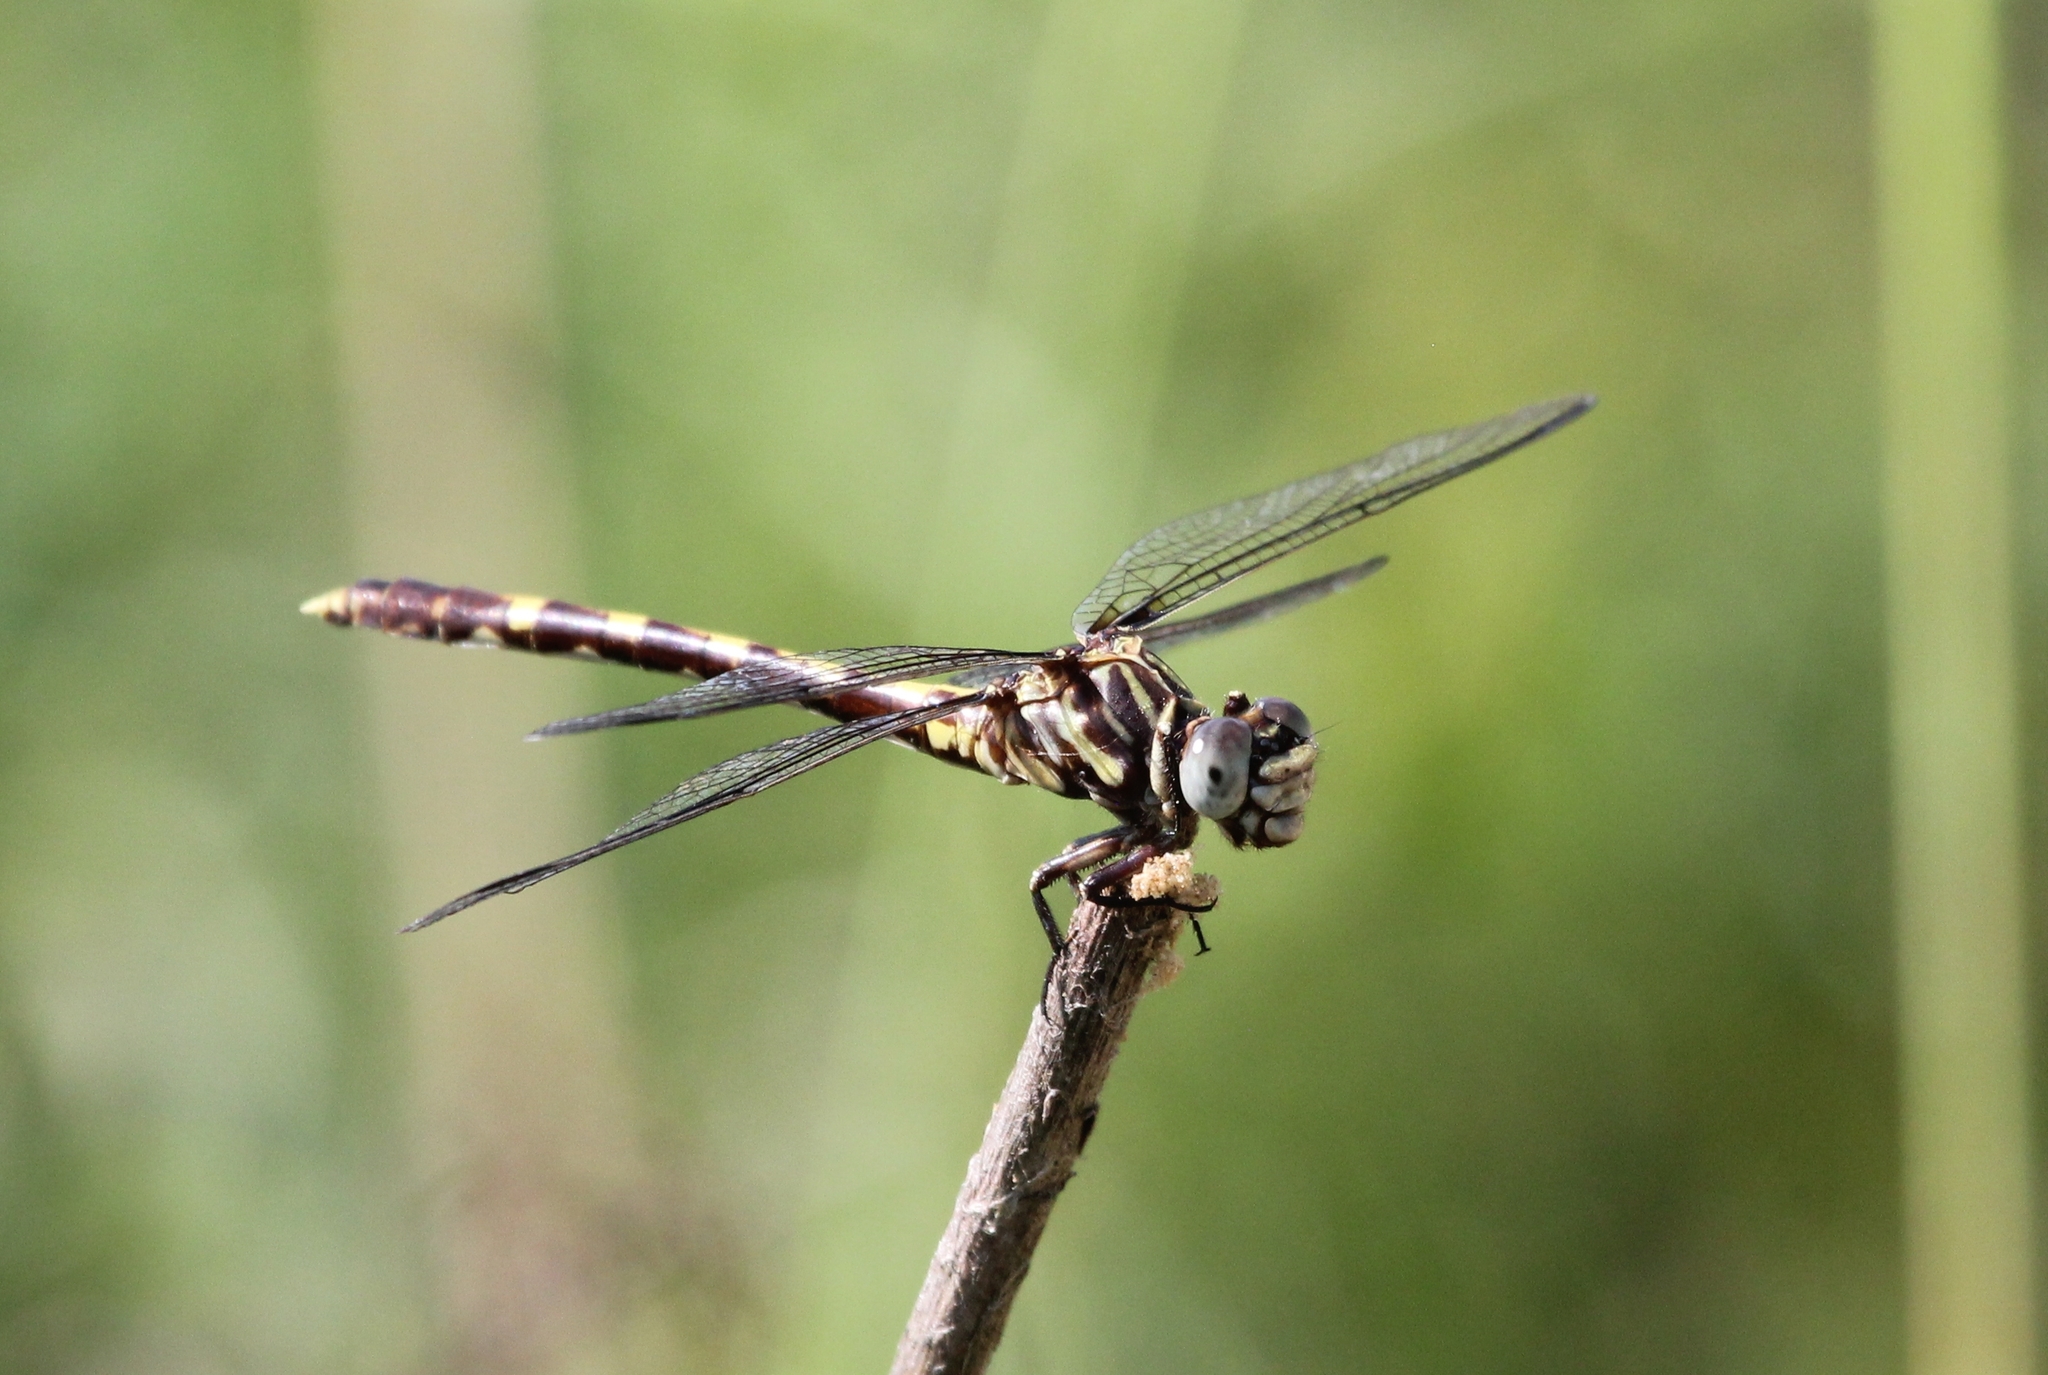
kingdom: Animalia
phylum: Arthropoda
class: Insecta
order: Odonata
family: Gomphidae
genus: Progomphus
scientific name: Progomphus obscurus
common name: Common sanddragon
